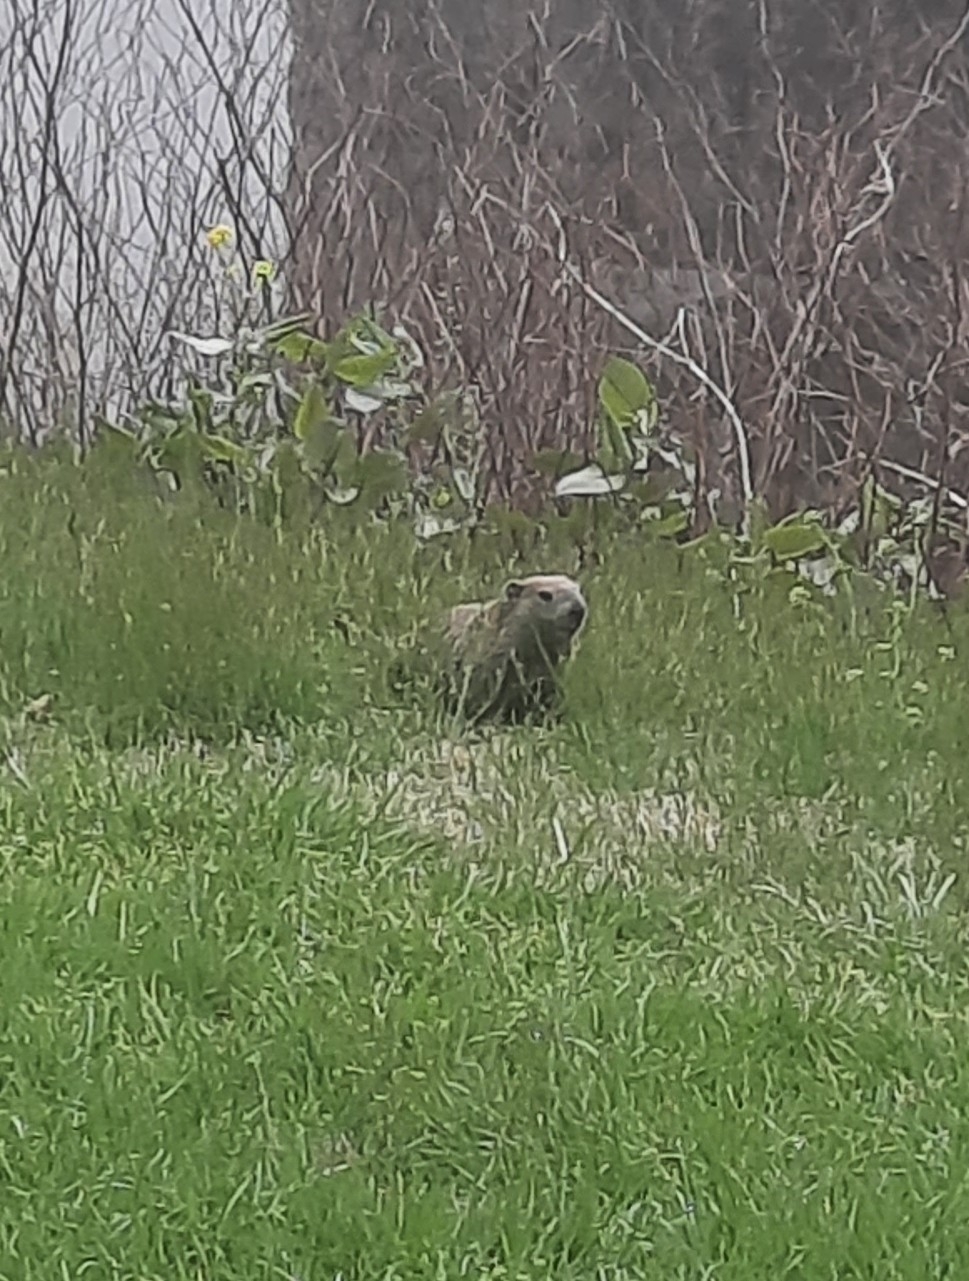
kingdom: Animalia
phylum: Chordata
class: Mammalia
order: Rodentia
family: Sciuridae
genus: Marmota
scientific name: Marmota monax
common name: Groundhog
